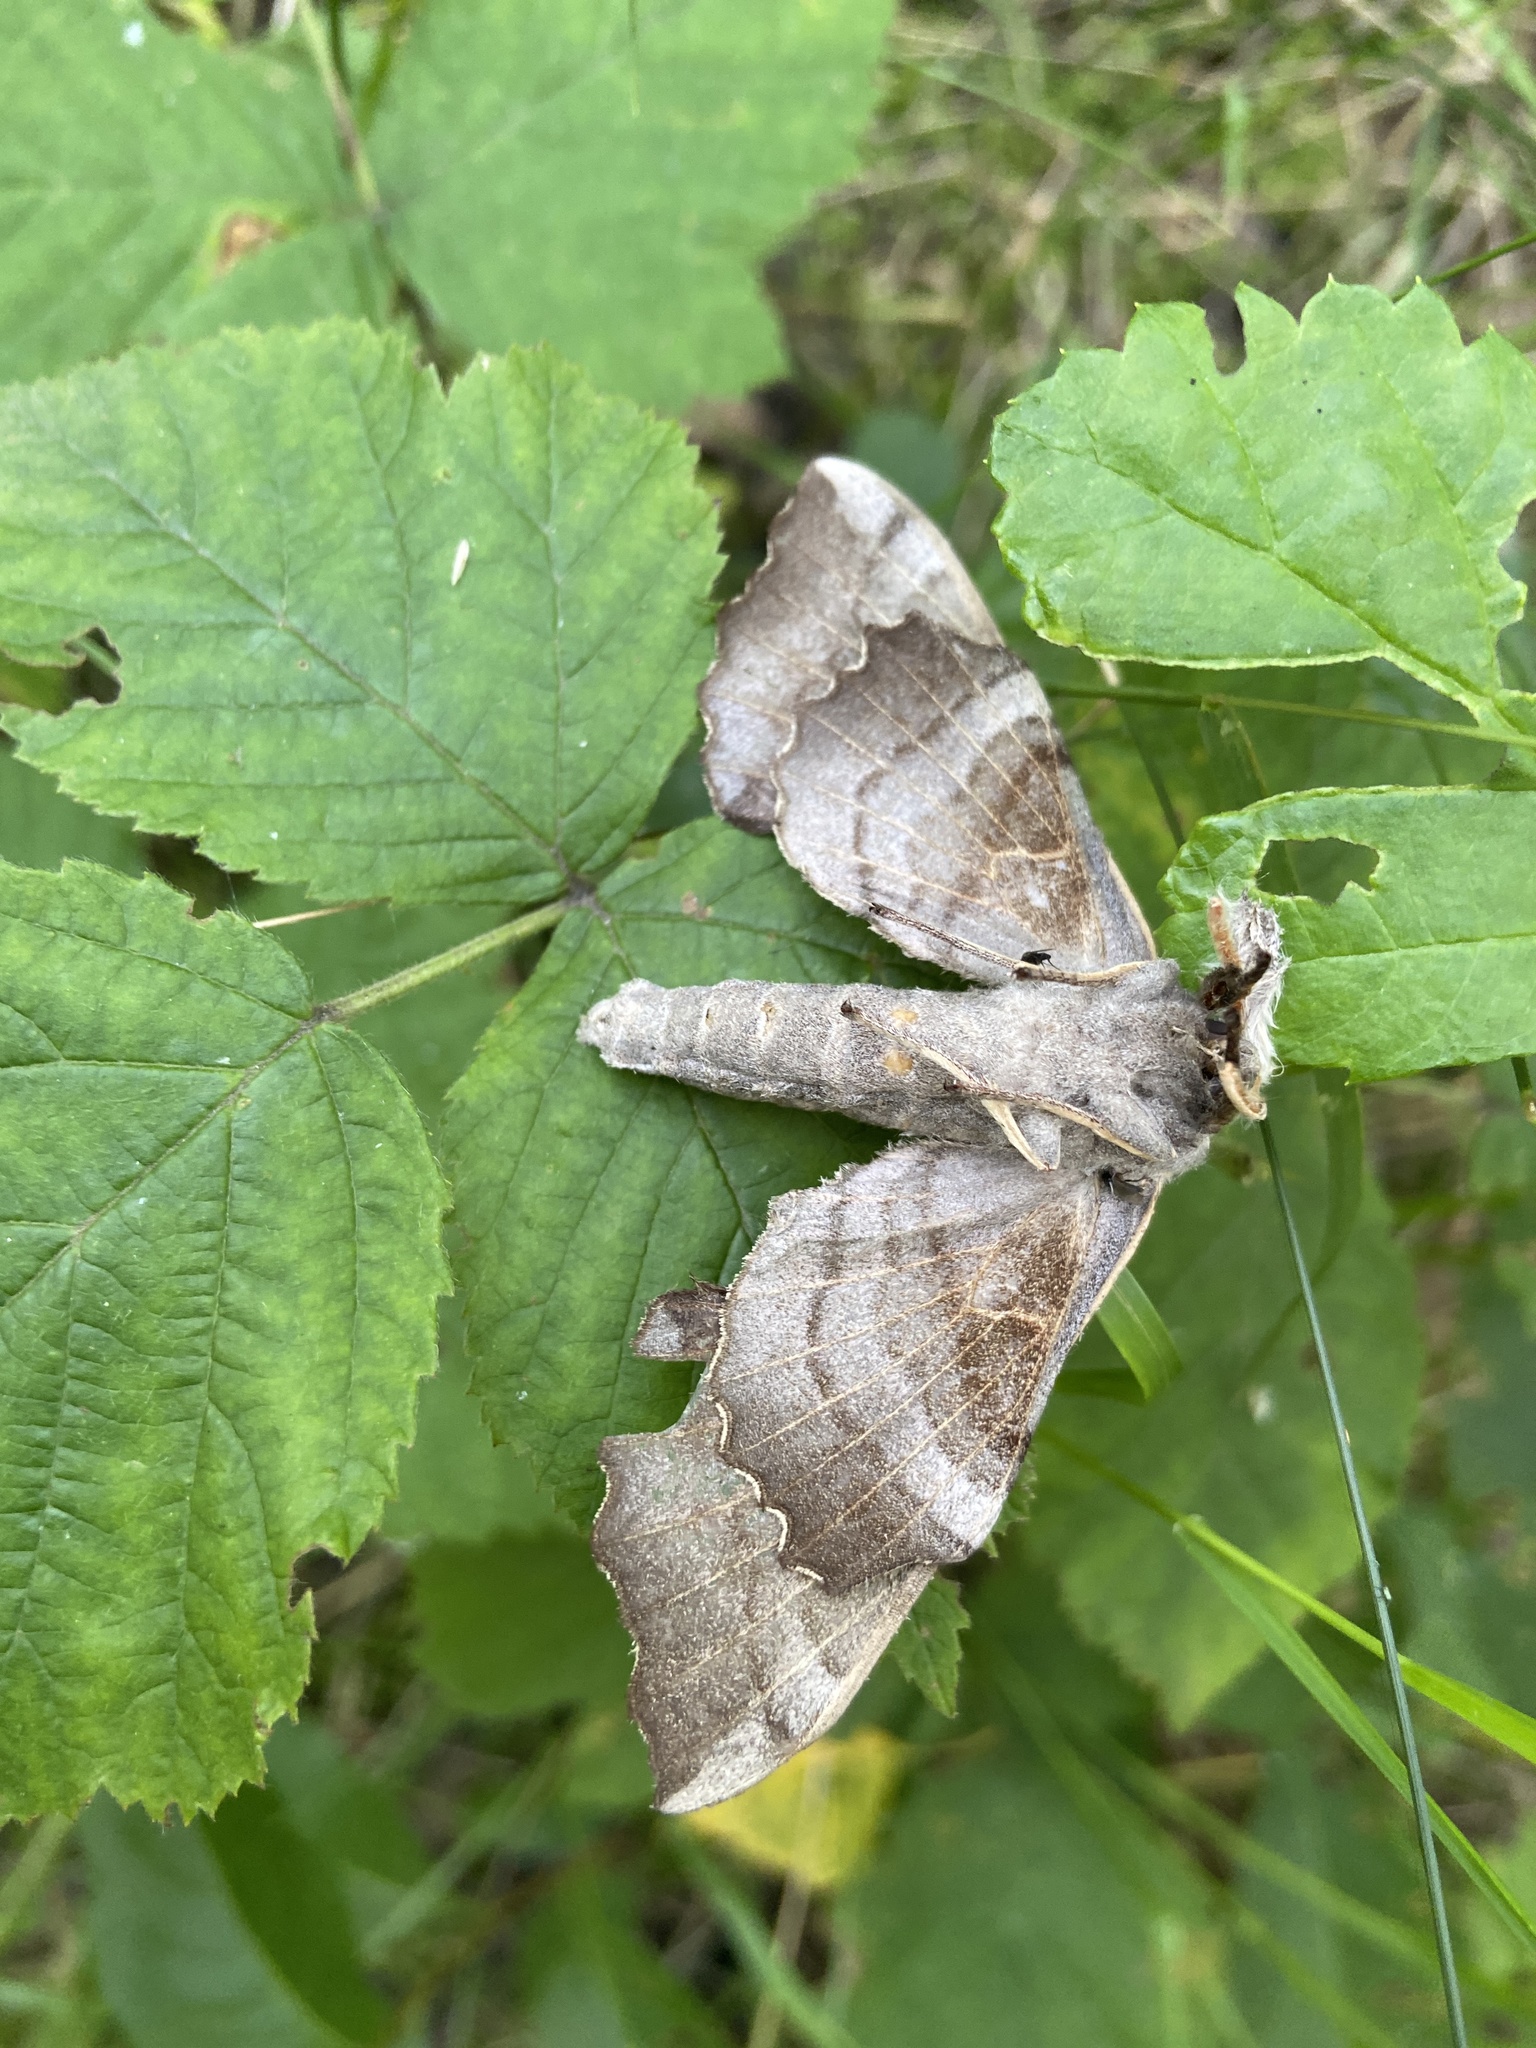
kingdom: Animalia
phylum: Arthropoda
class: Insecta
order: Lepidoptera
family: Sphingidae
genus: Laothoe
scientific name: Laothoe populi
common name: Poplar hawk-moth
